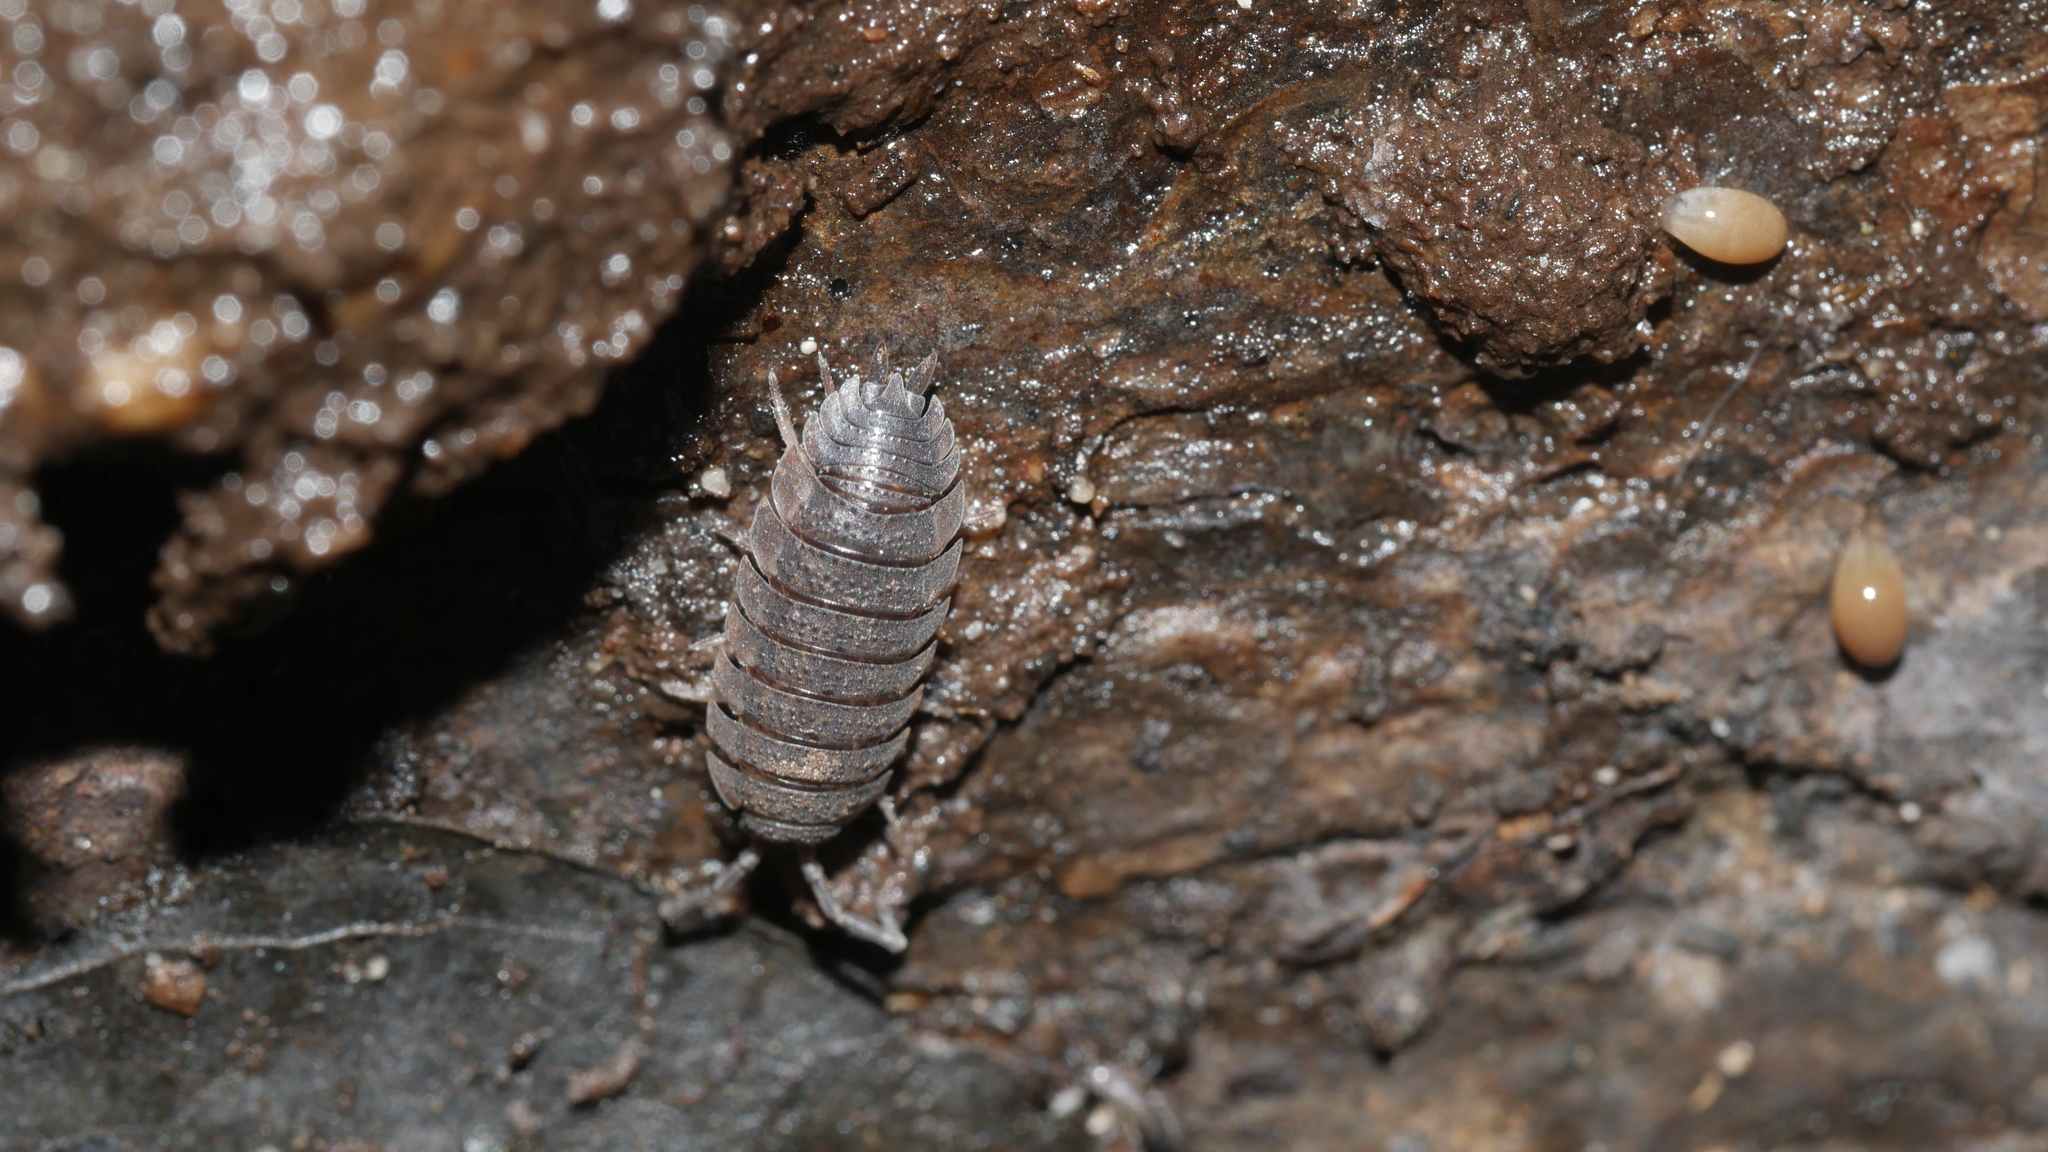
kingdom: Animalia
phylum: Arthropoda
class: Malacostraca
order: Isopoda
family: Porcellionidae
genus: Porcellio
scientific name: Porcellio scaber
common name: Common rough woodlouse
